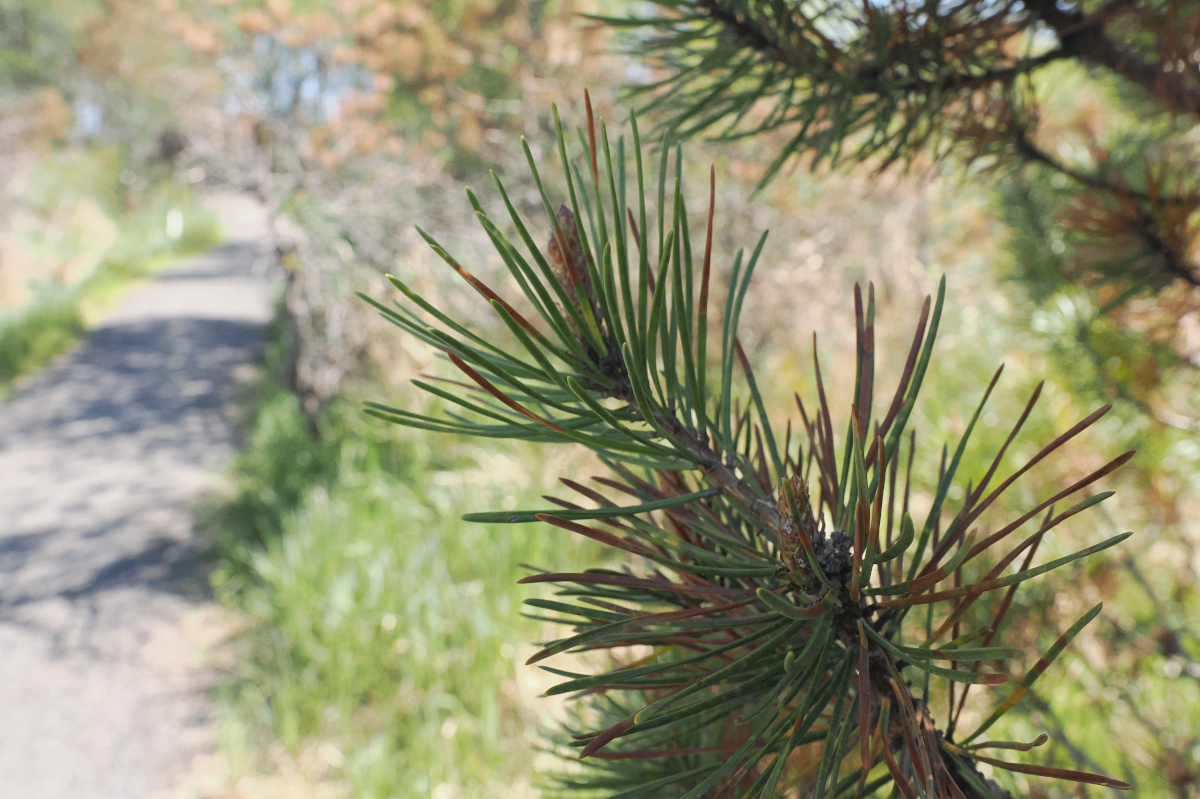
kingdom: Plantae
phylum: Tracheophyta
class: Pinopsida
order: Pinales
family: Pinaceae
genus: Pinus
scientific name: Pinus contorta
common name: Lodgepole pine
